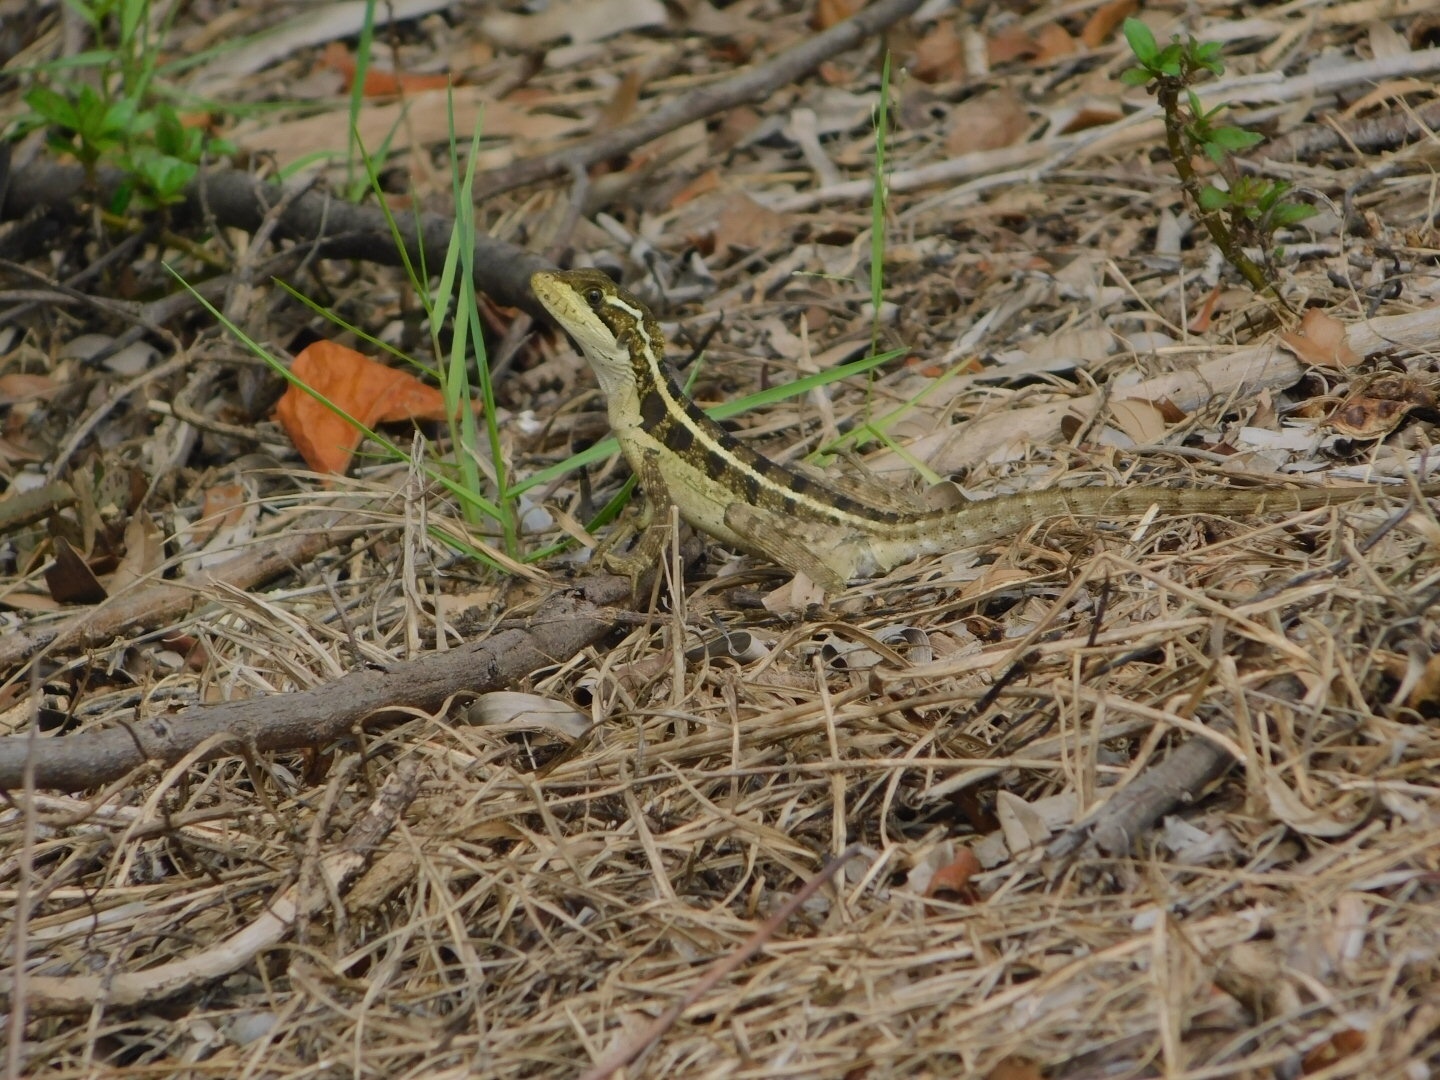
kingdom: Animalia
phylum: Chordata
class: Squamata
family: Corytophanidae
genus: Basiliscus
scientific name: Basiliscus vittatus
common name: Brown basilisk
